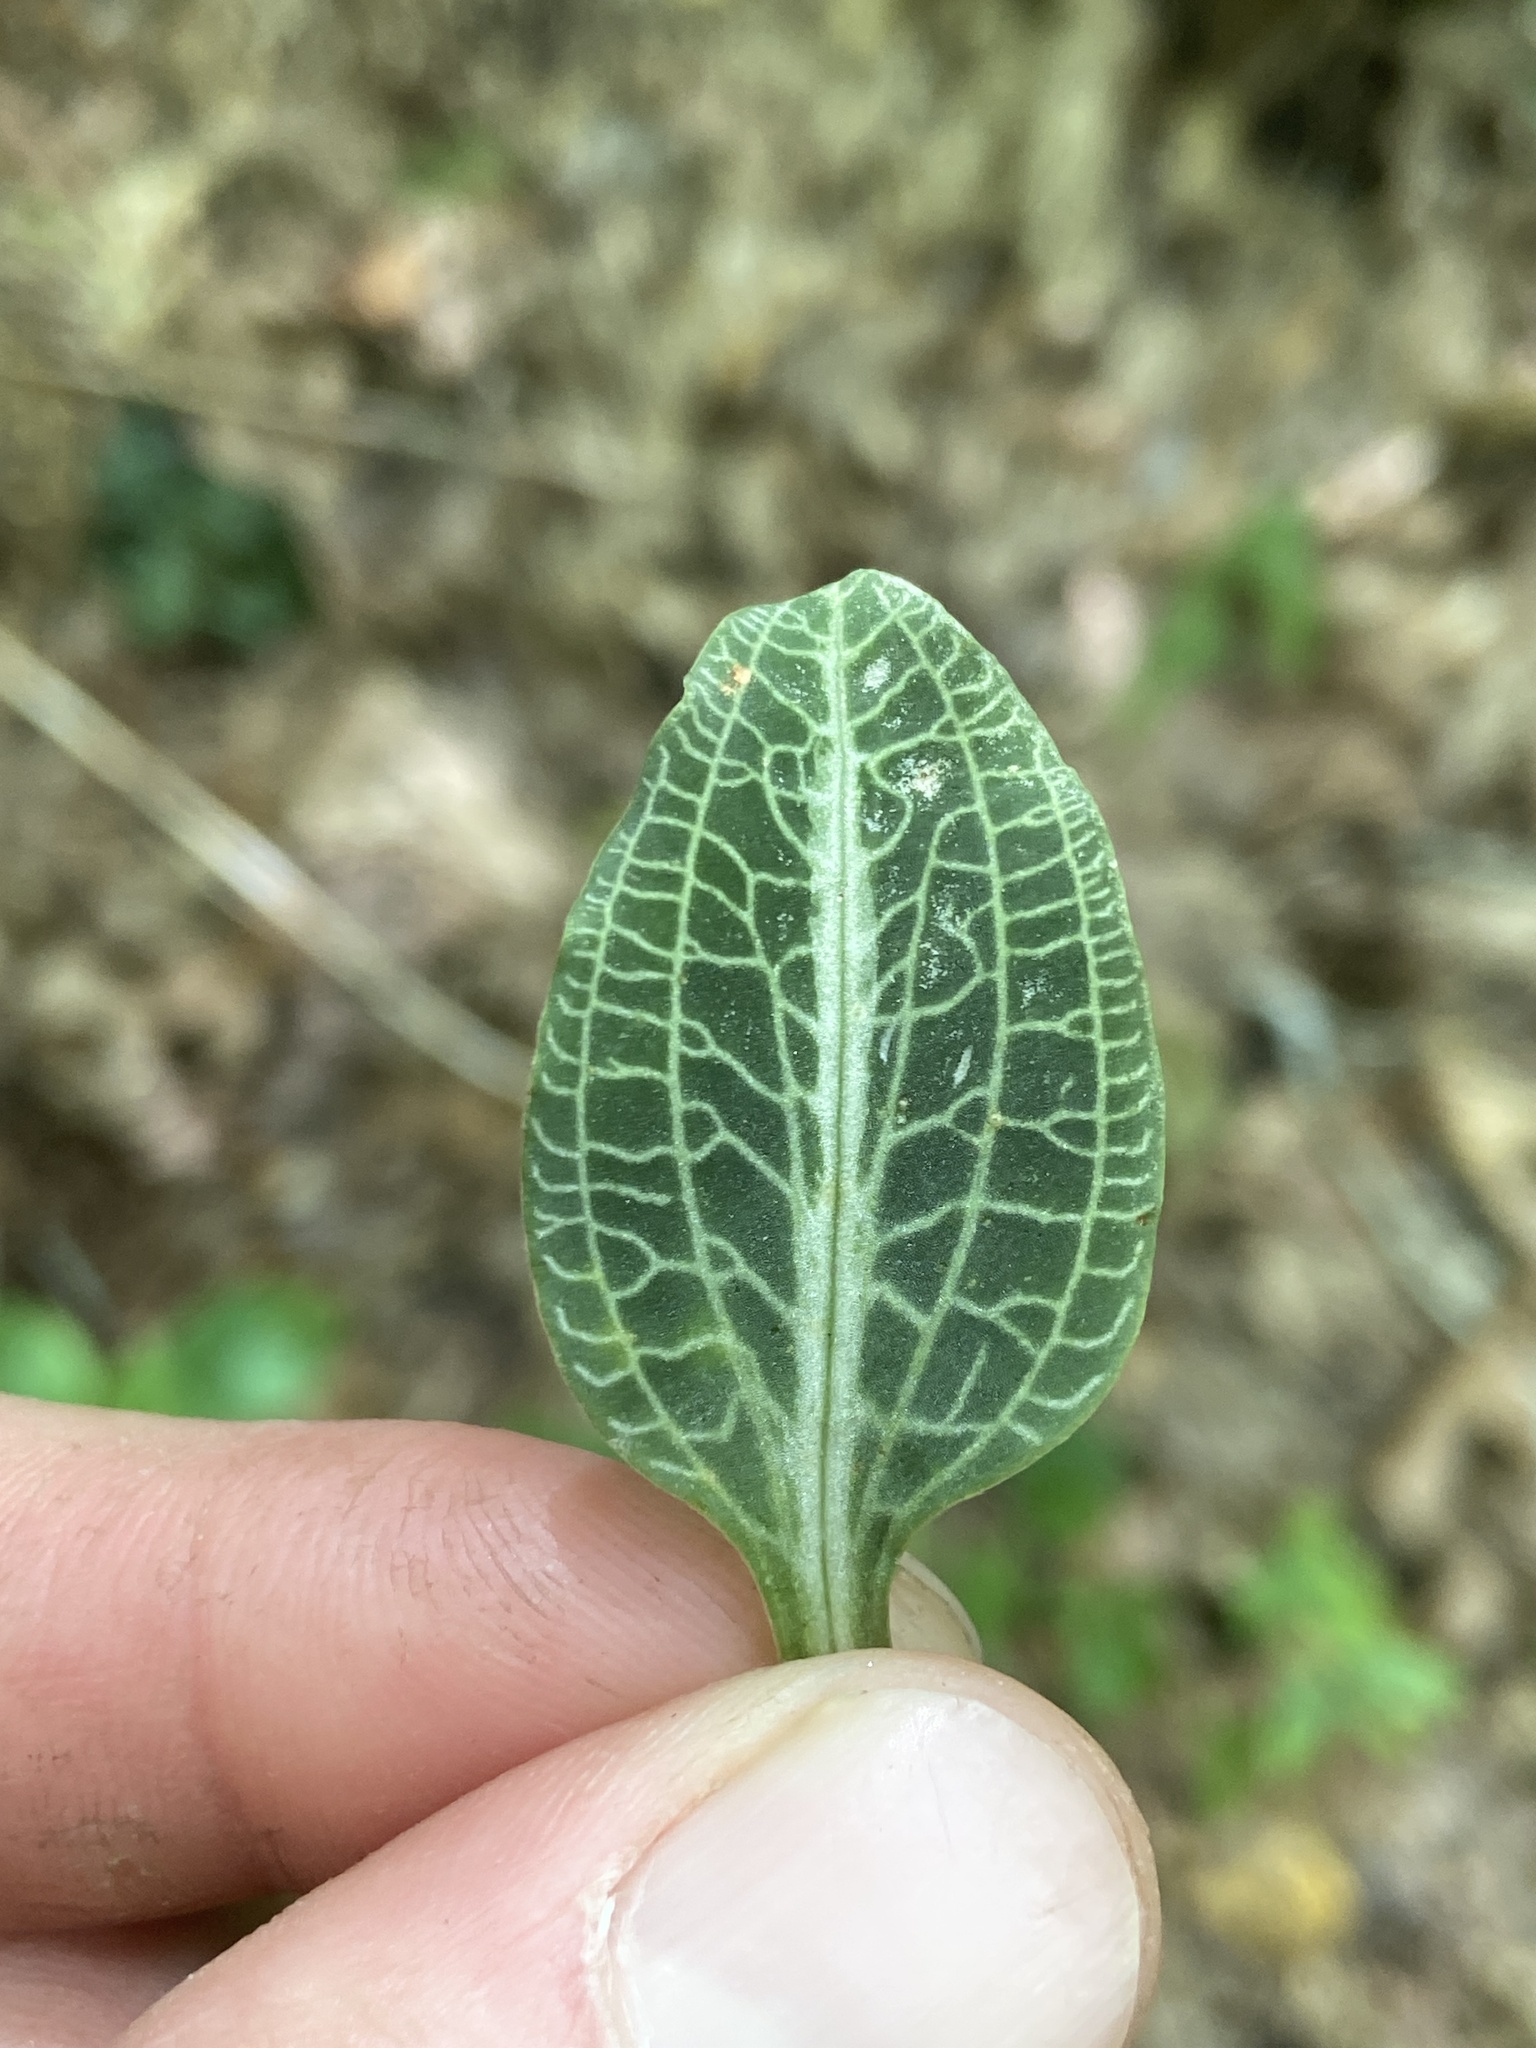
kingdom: Plantae
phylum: Tracheophyta
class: Liliopsida
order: Asparagales
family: Orchidaceae
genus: Goodyera
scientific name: Goodyera pubescens
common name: Downy rattlesnake-plantain
